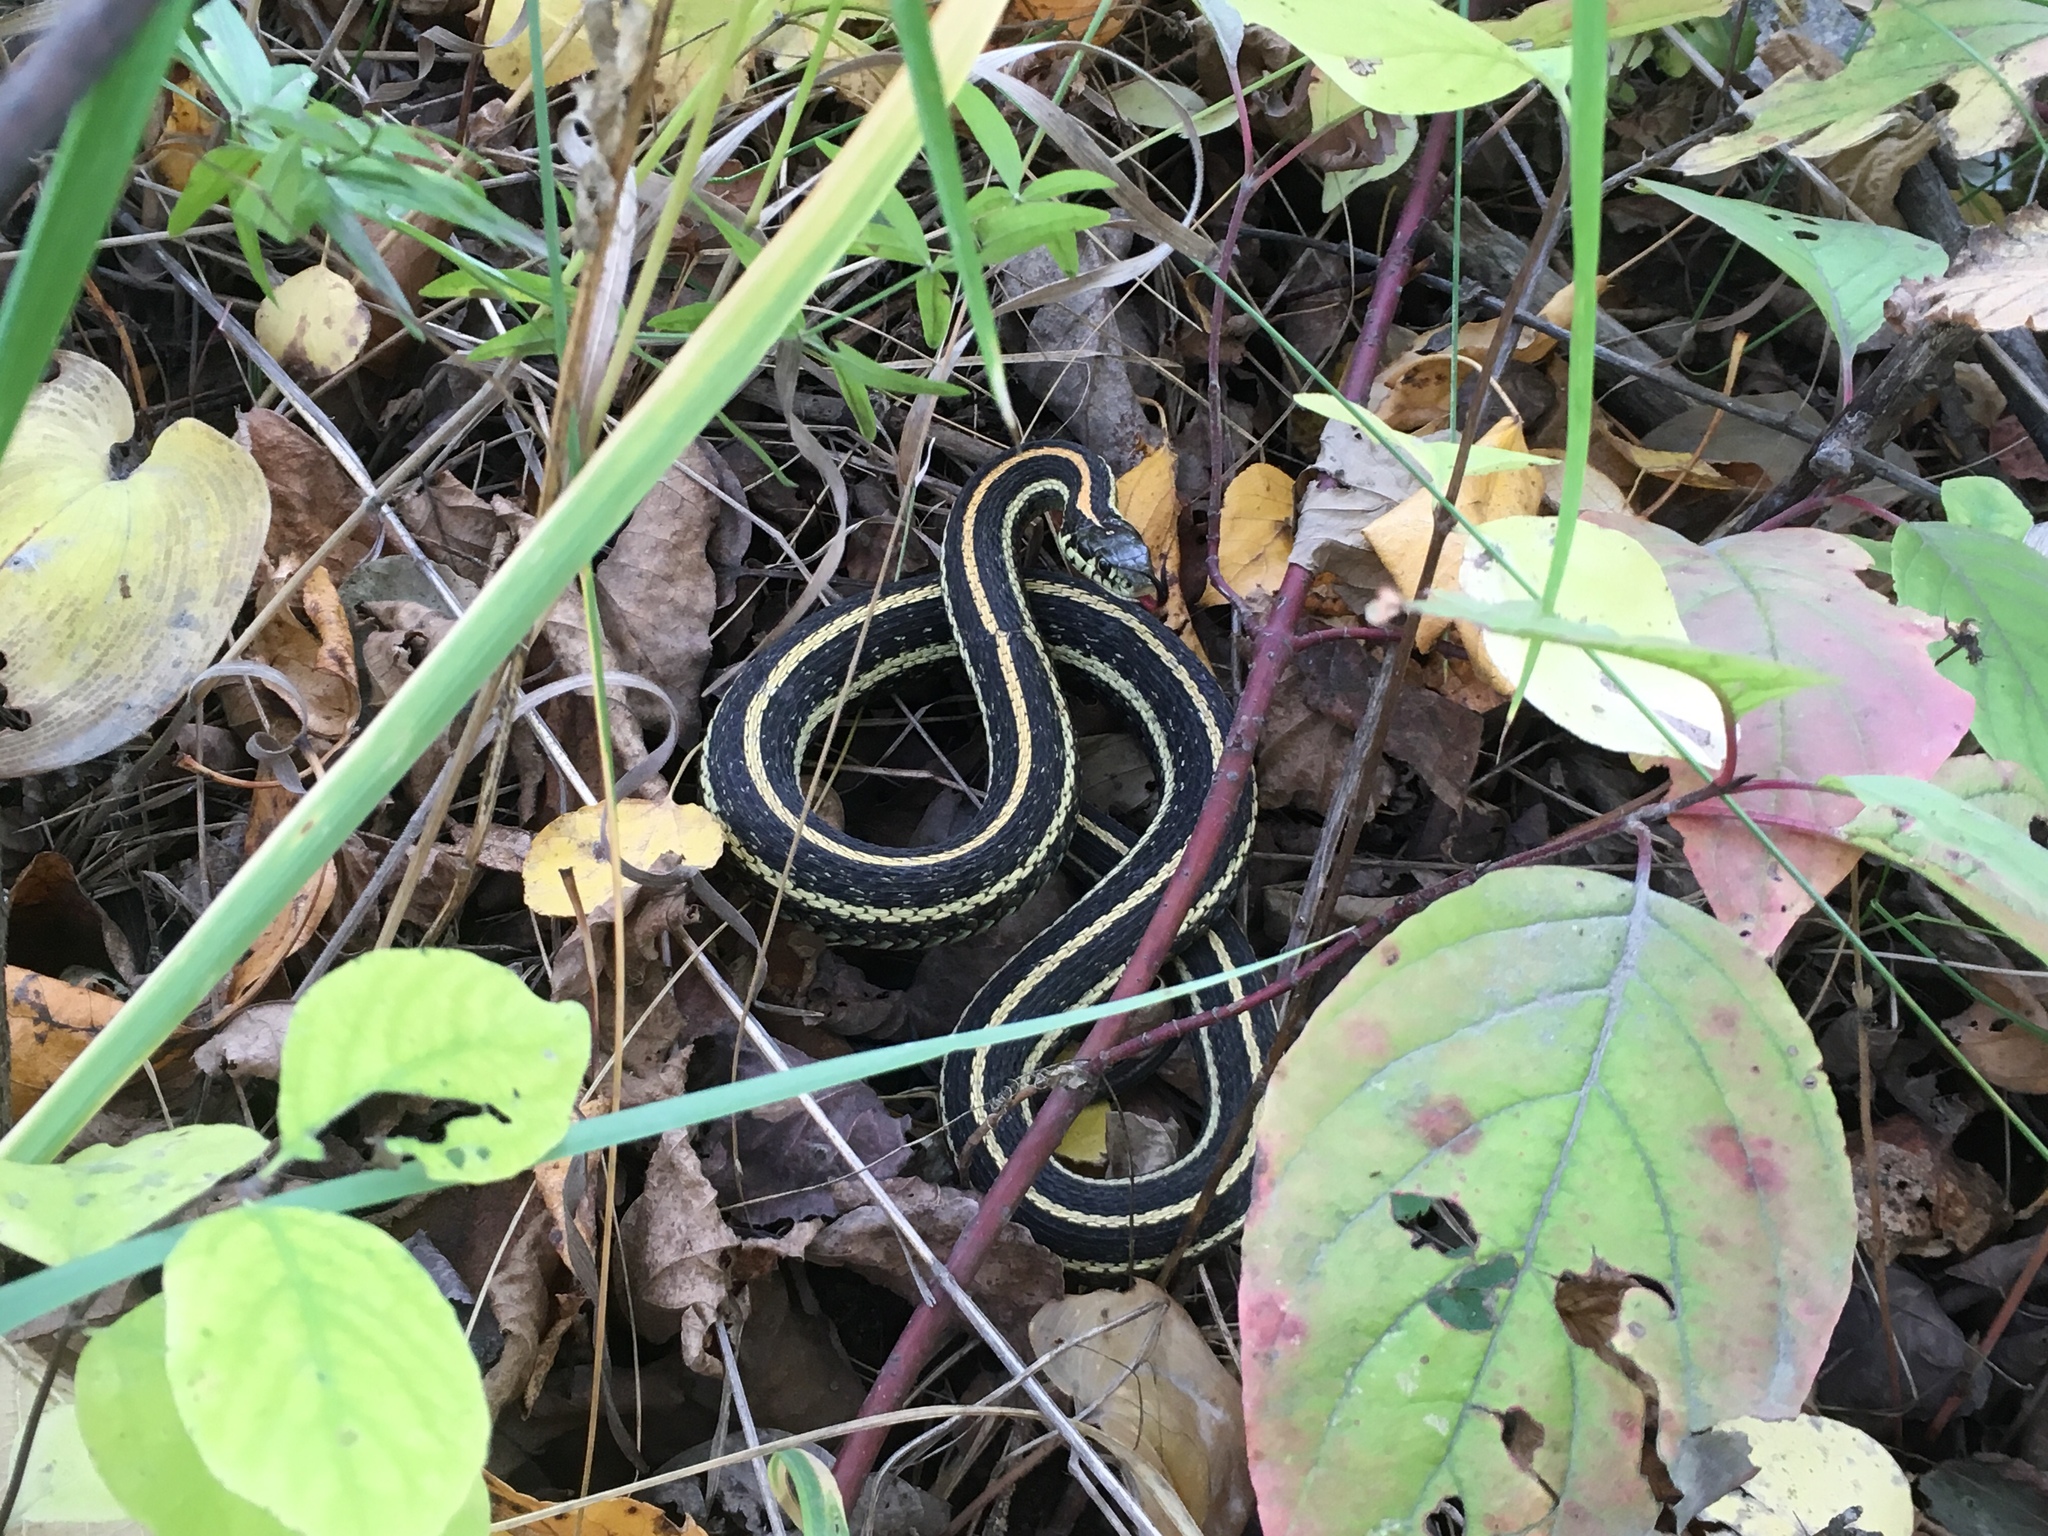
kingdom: Animalia
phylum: Chordata
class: Squamata
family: Colubridae
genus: Thamnophis
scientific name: Thamnophis radix
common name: Plains garter snake
